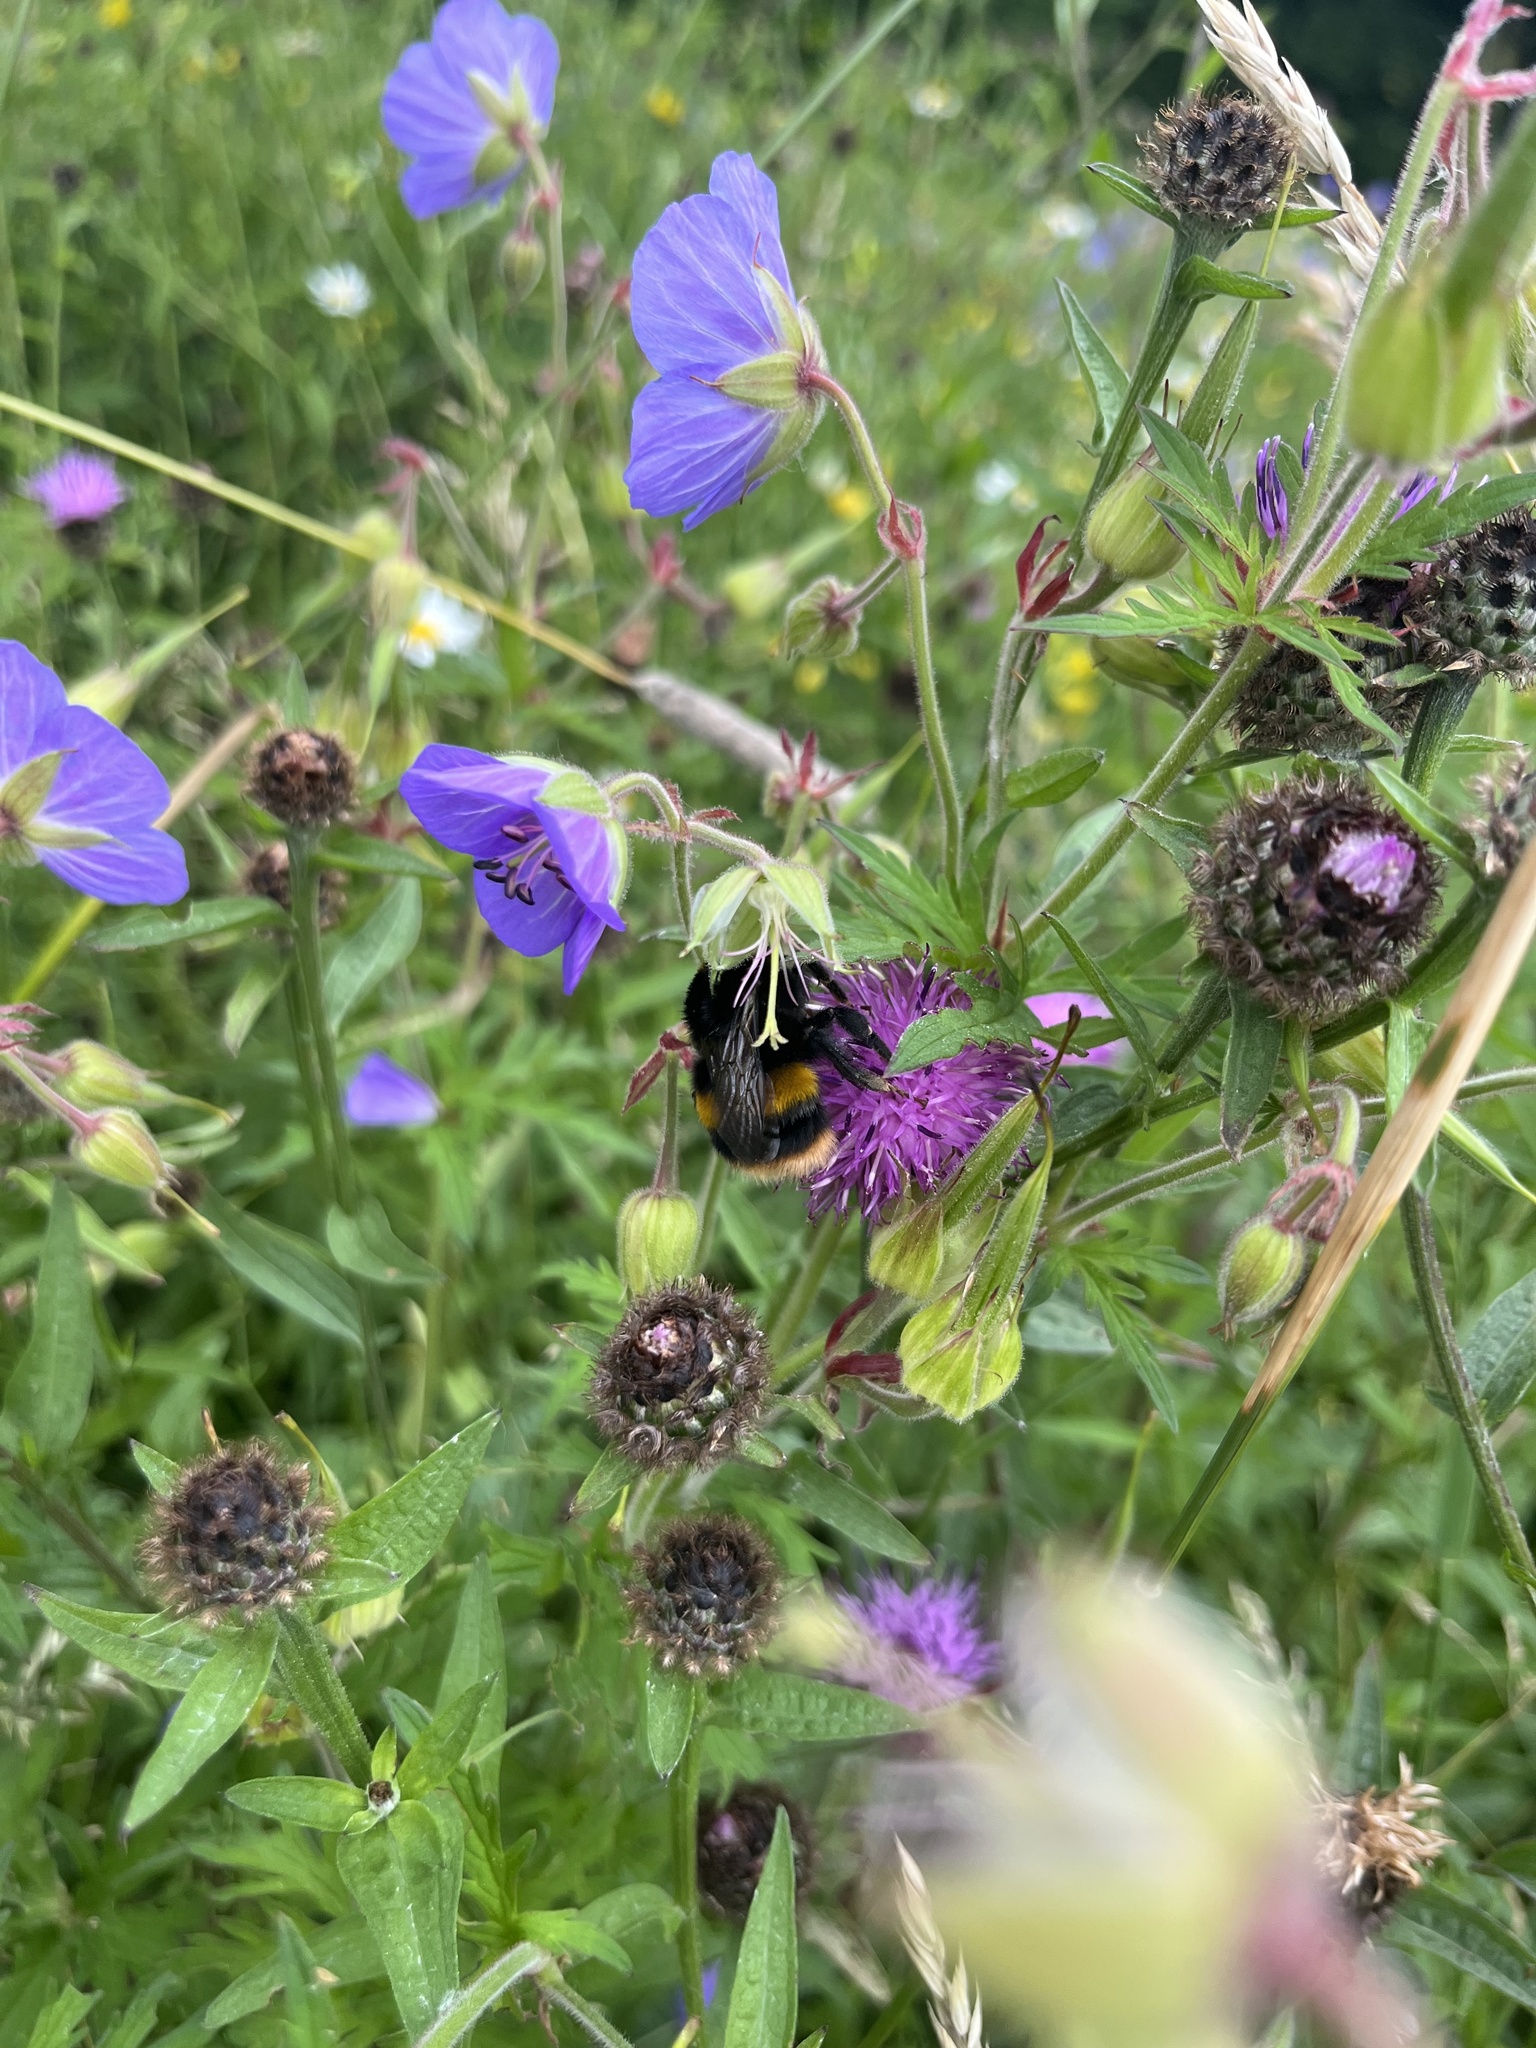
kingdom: Animalia
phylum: Arthropoda
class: Insecta
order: Hymenoptera
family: Apidae
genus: Bombus
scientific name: Bombus terrestris
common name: Buff-tailed bumblebee
